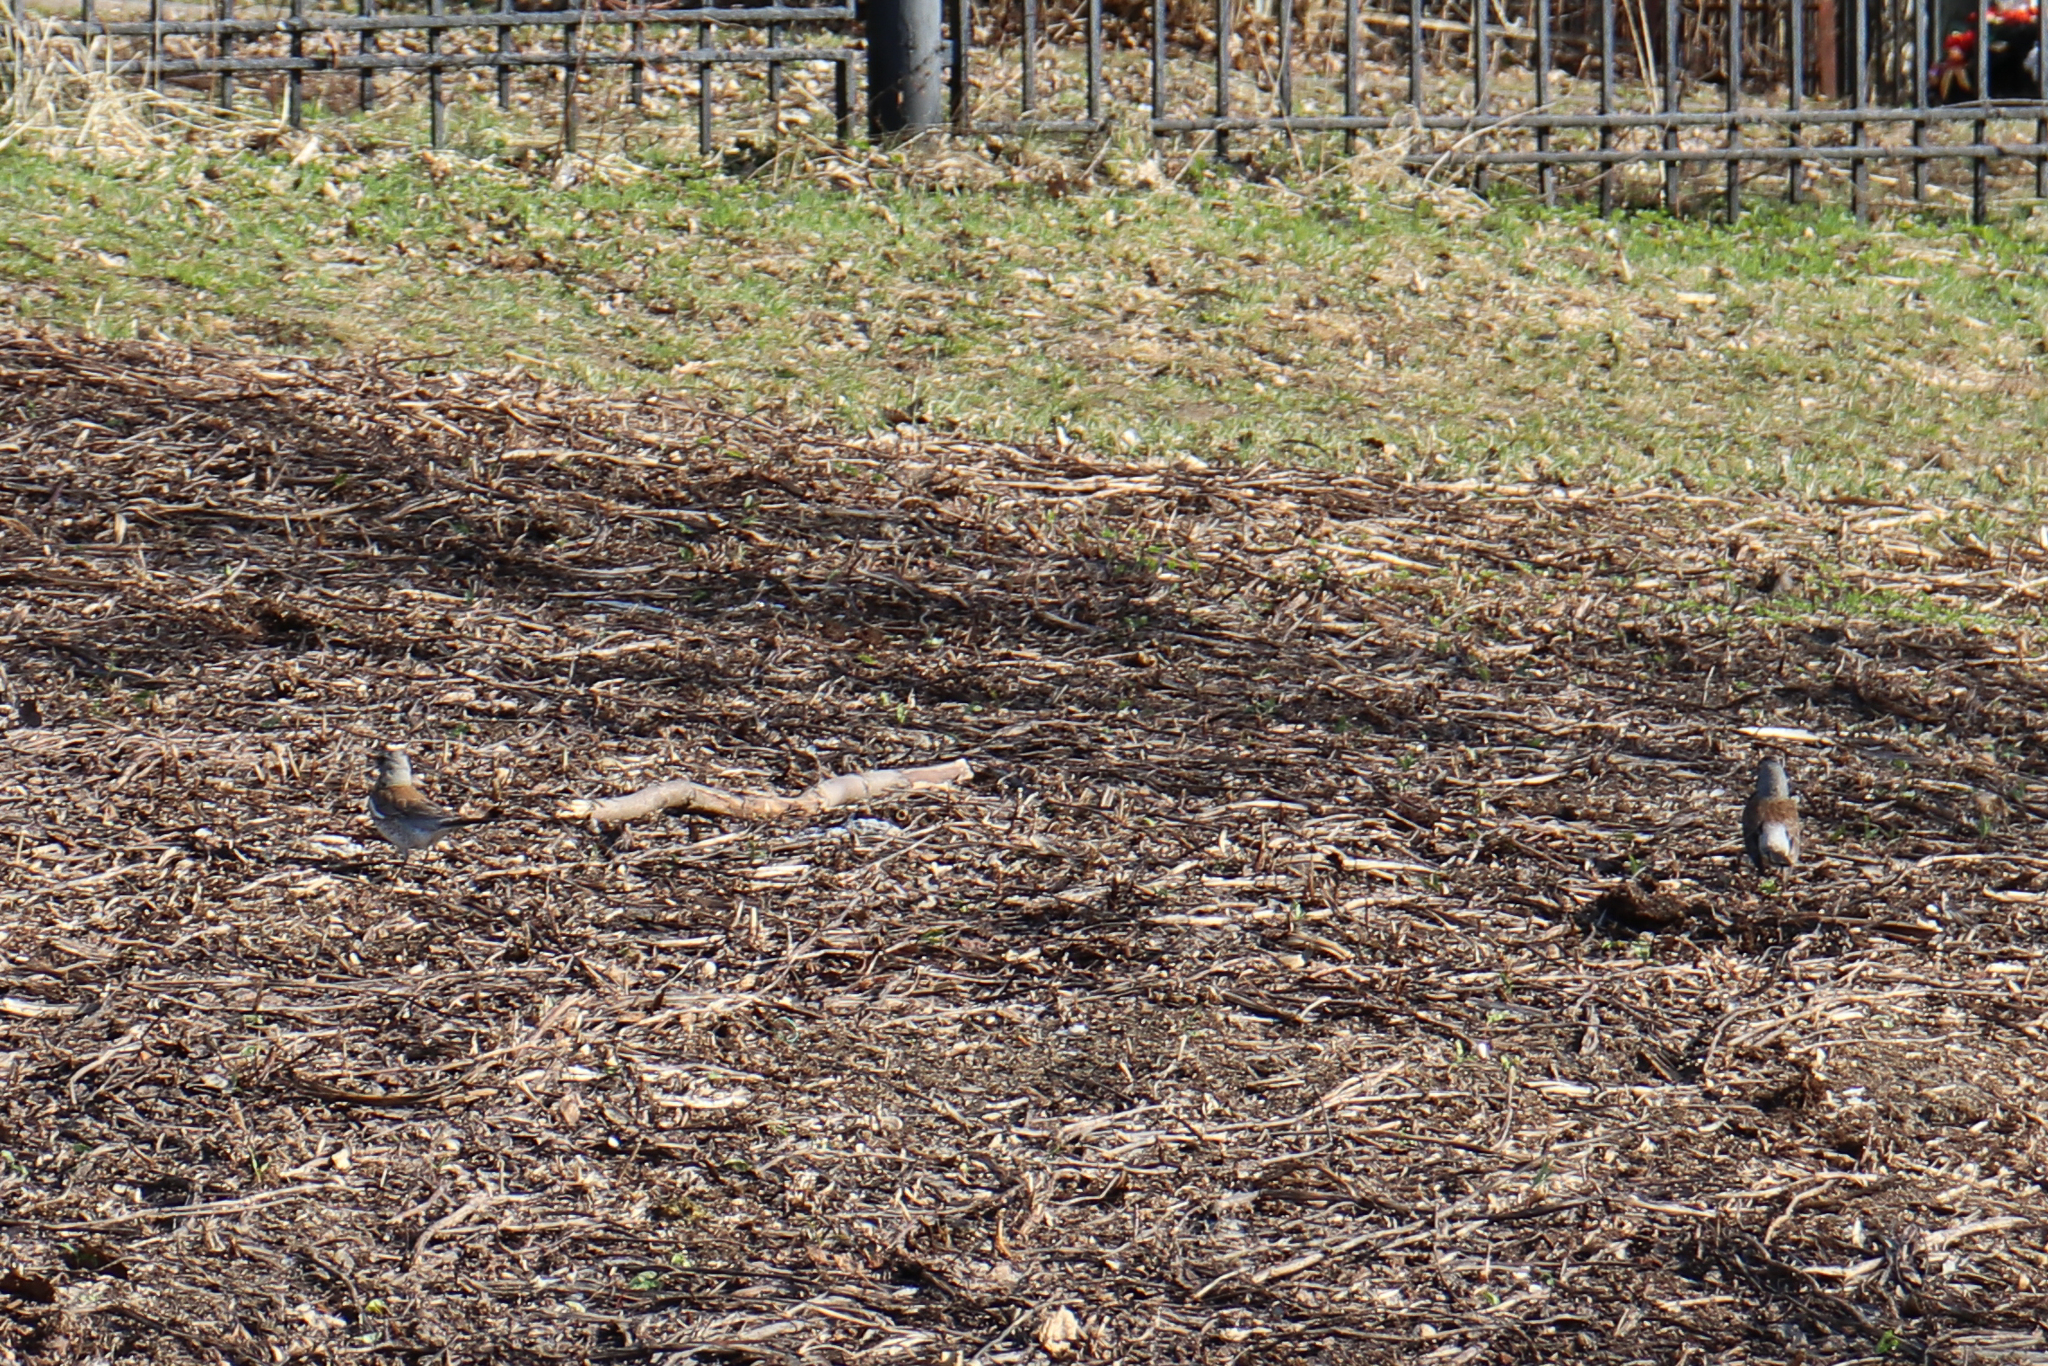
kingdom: Animalia
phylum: Chordata
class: Aves
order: Passeriformes
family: Turdidae
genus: Turdus
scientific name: Turdus pilaris
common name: Fieldfare
